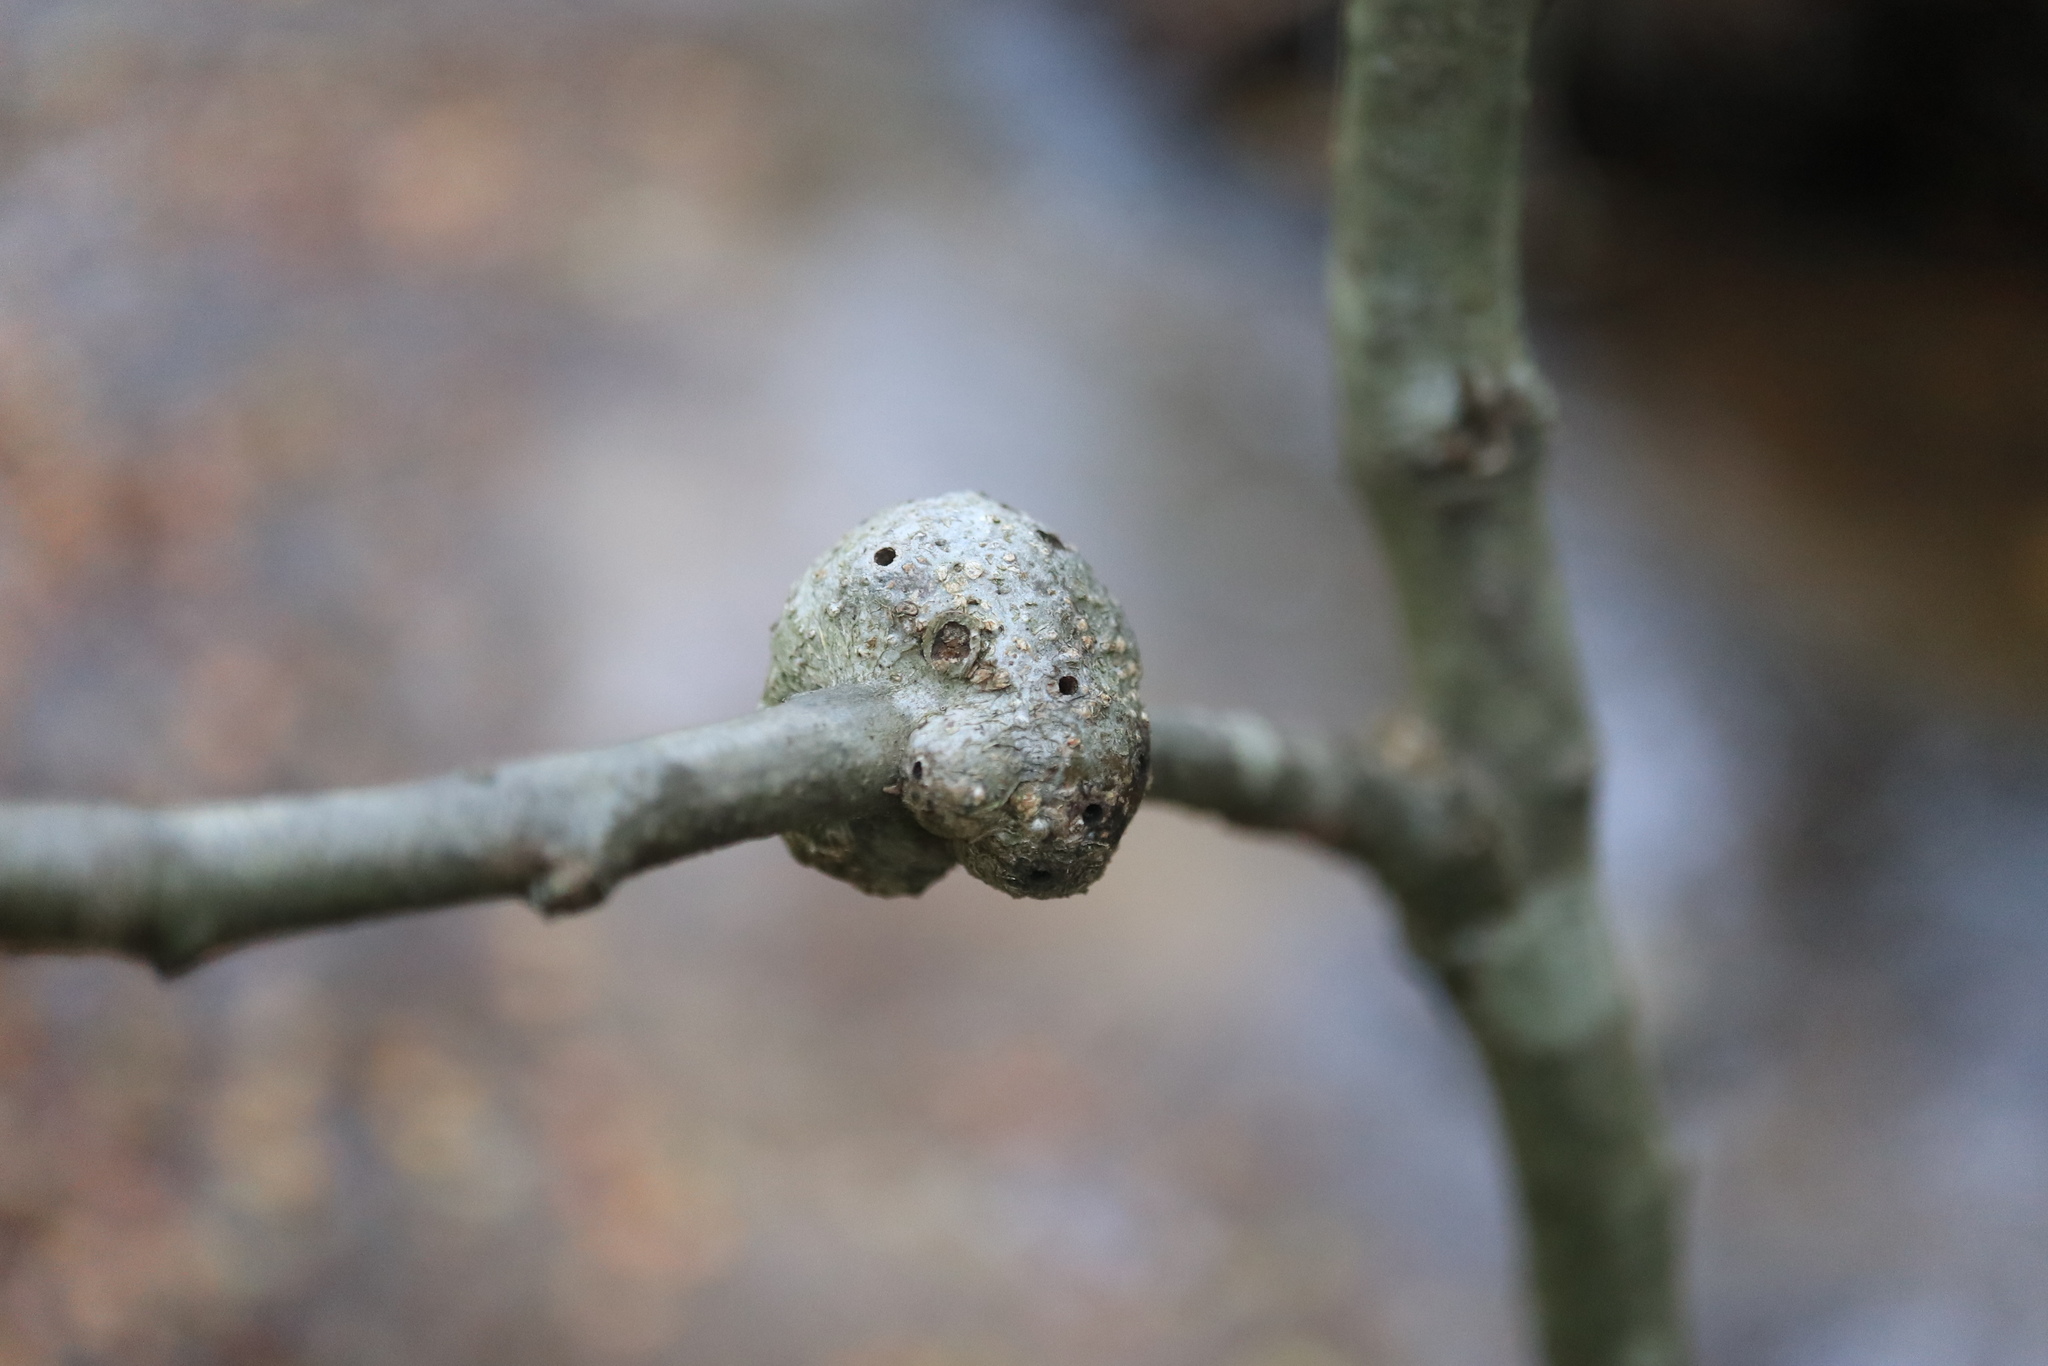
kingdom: Animalia
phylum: Arthropoda
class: Insecta
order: Hymenoptera
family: Cynipidae
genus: Callirhytis
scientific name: Callirhytis
